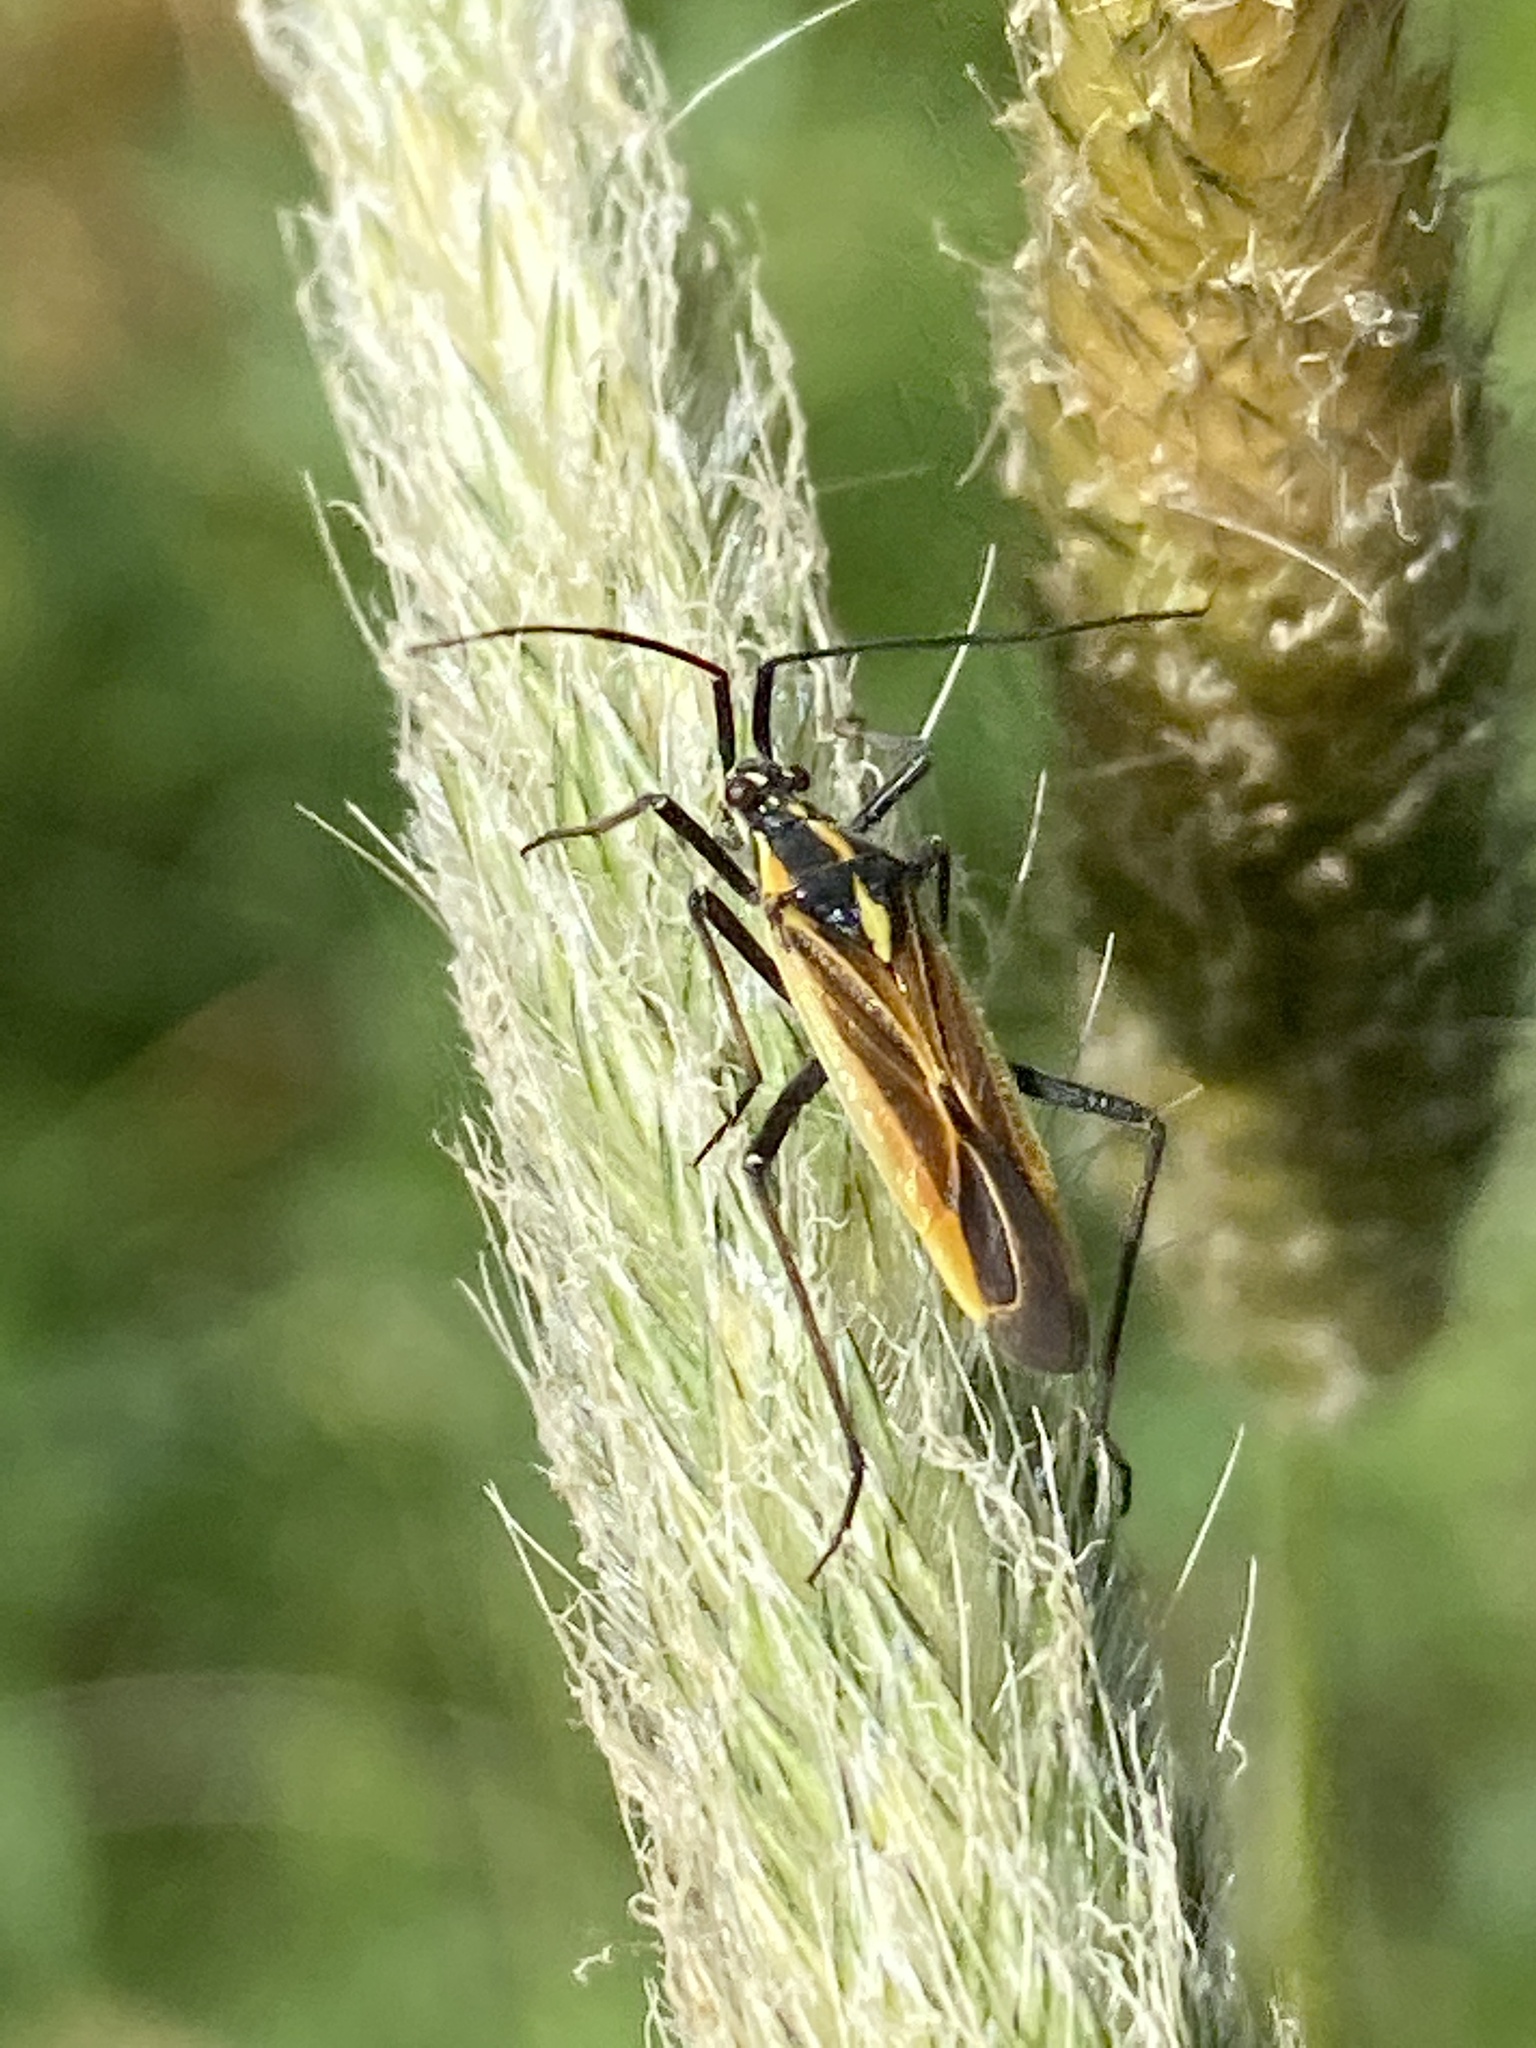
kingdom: Animalia
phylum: Arthropoda
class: Insecta
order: Hemiptera
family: Miridae
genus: Leptopterna
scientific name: Leptopterna dolabrata
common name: Meadow plant bug
